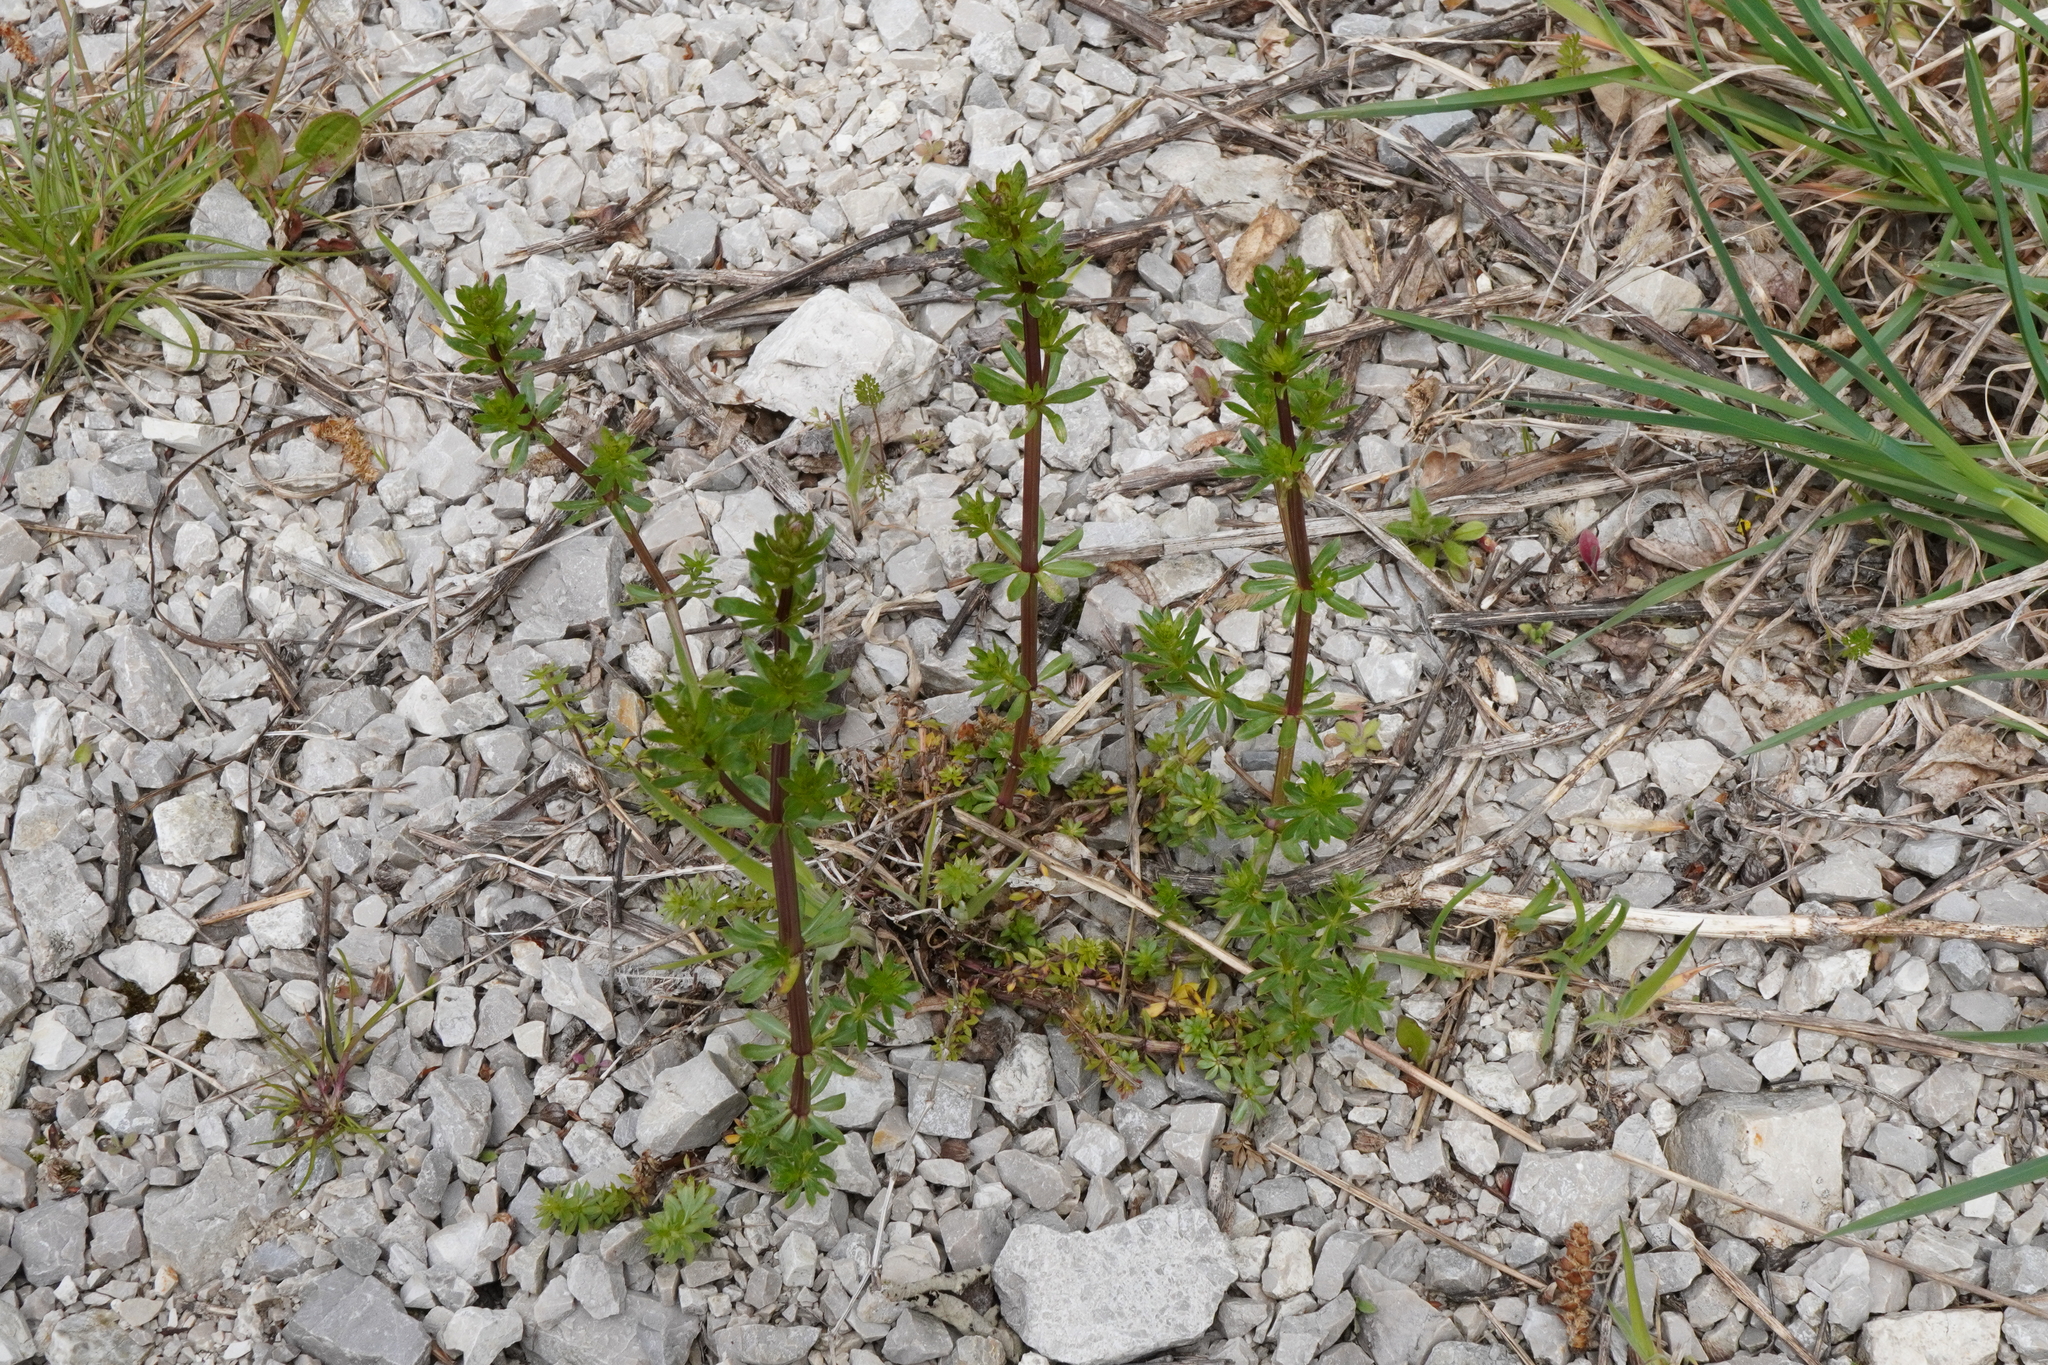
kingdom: Plantae
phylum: Tracheophyta
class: Magnoliopsida
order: Gentianales
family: Rubiaceae
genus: Galium
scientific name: Galium album
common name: White bedstraw
